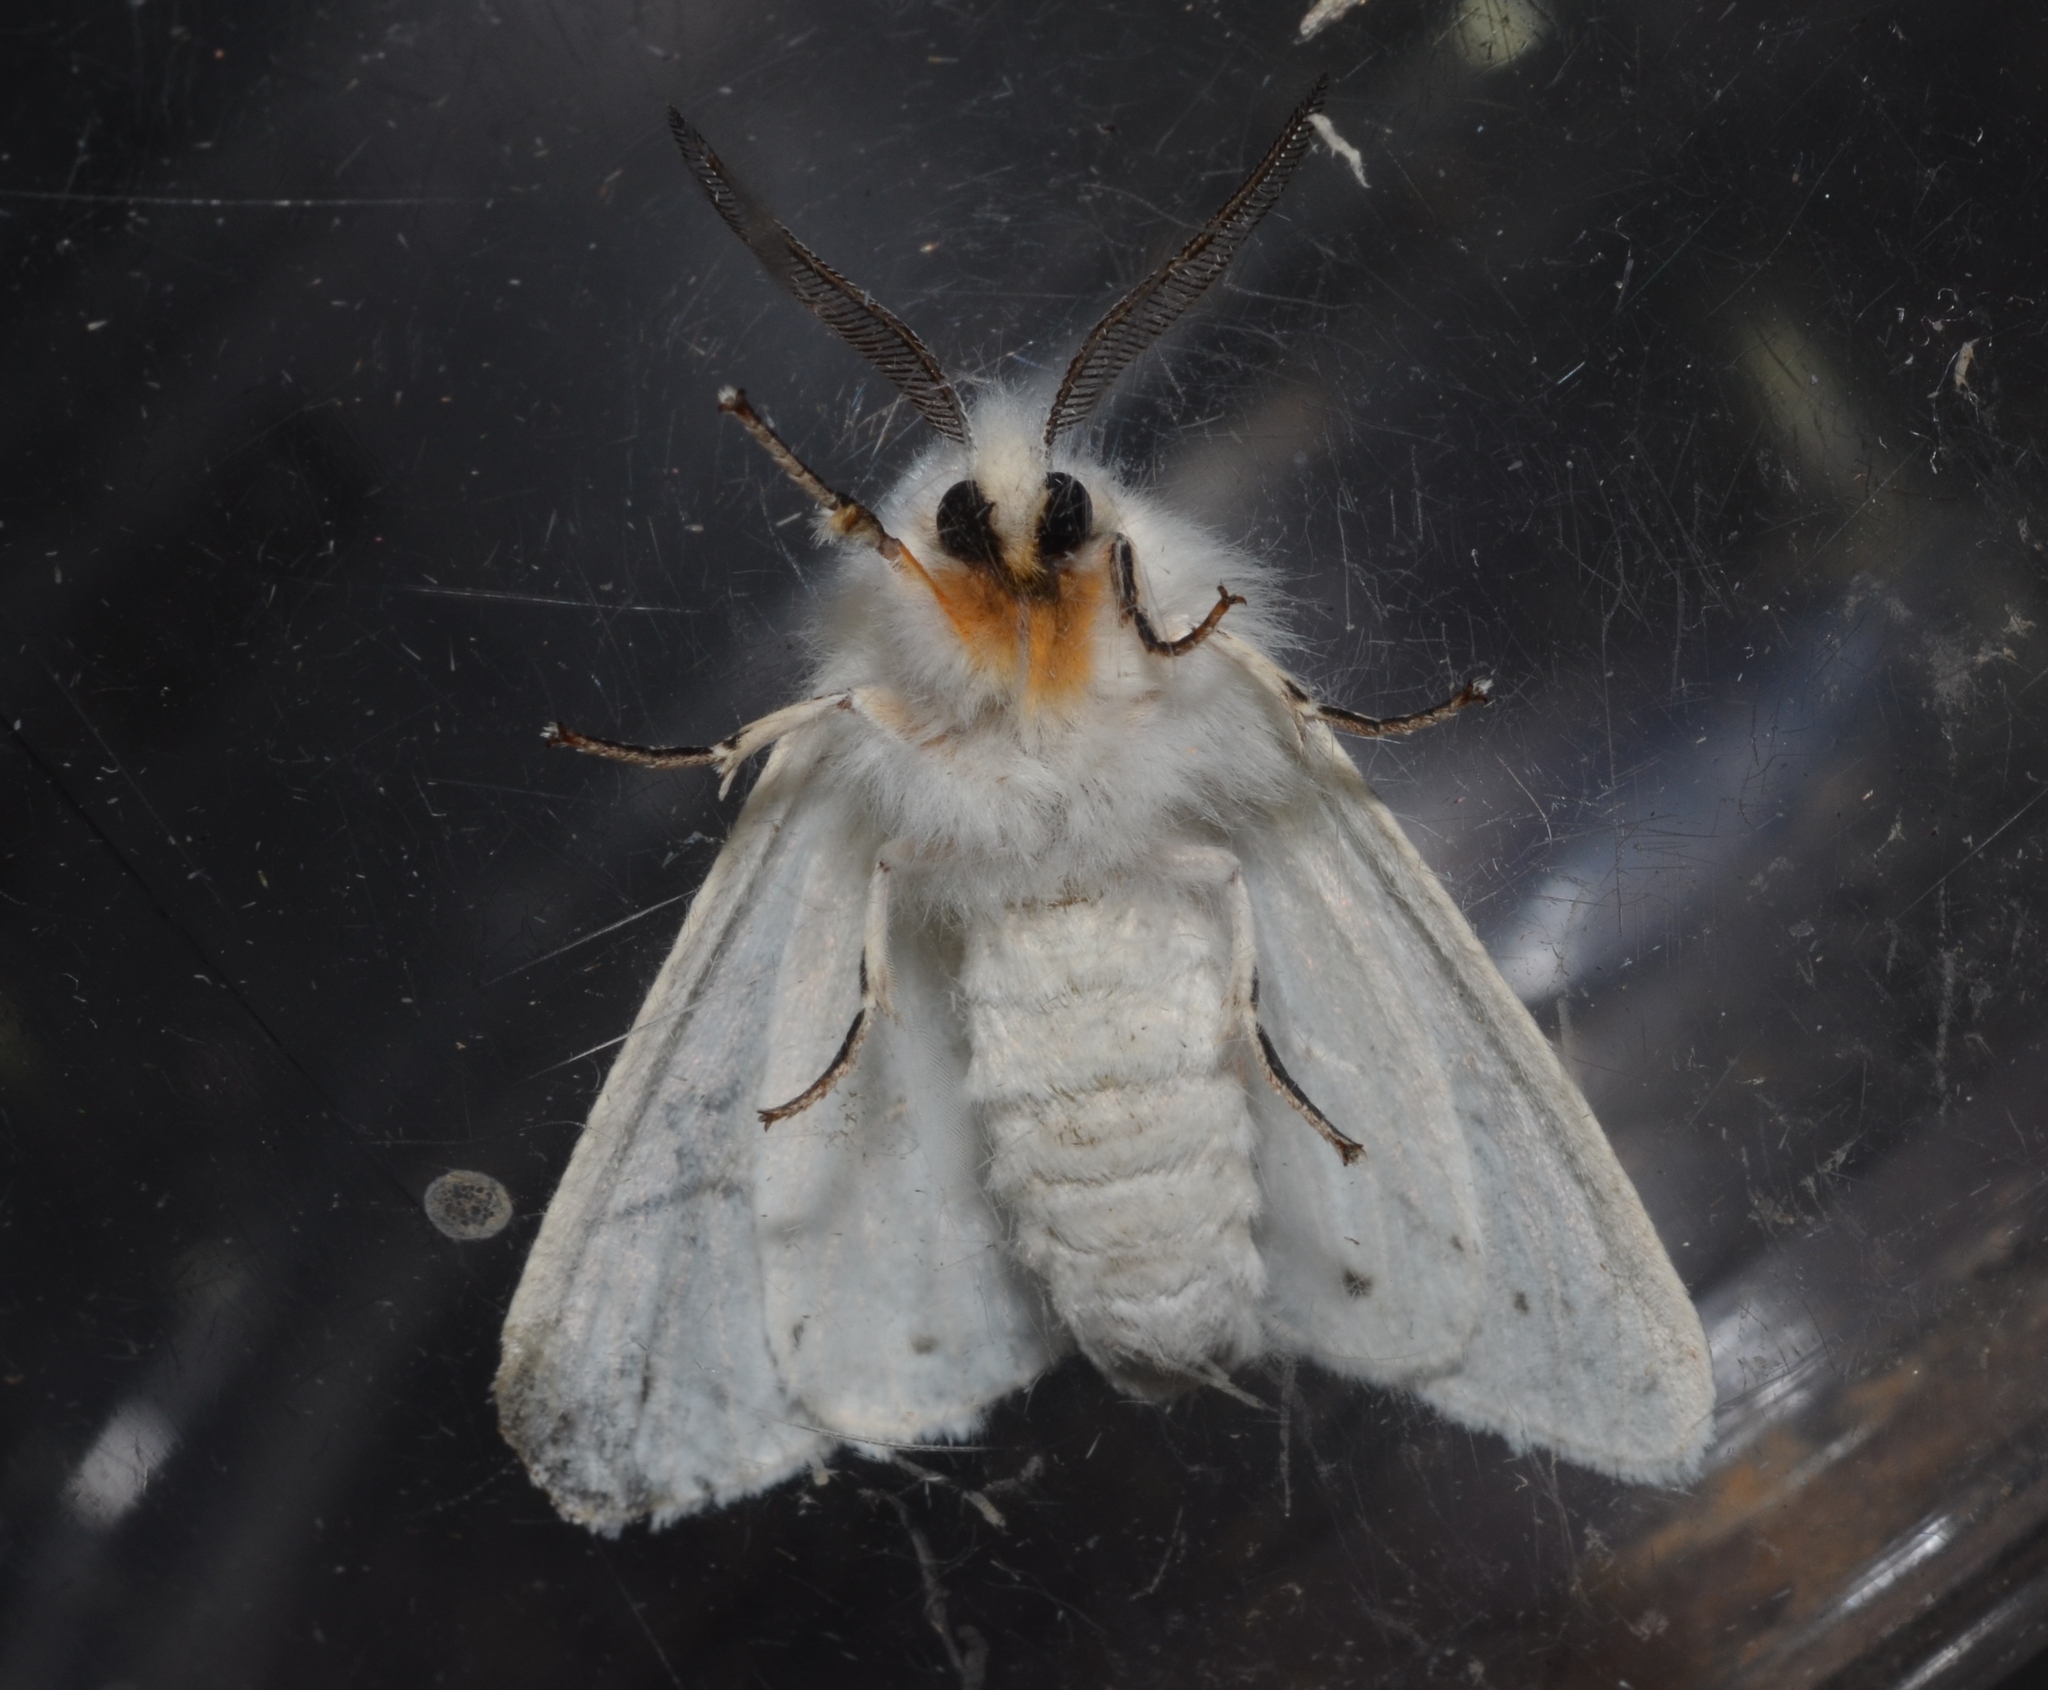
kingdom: Animalia
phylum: Arthropoda
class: Insecta
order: Lepidoptera
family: Erebidae
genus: Spilosoma
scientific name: Spilosoma congrua
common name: Agreeable tiger moth
